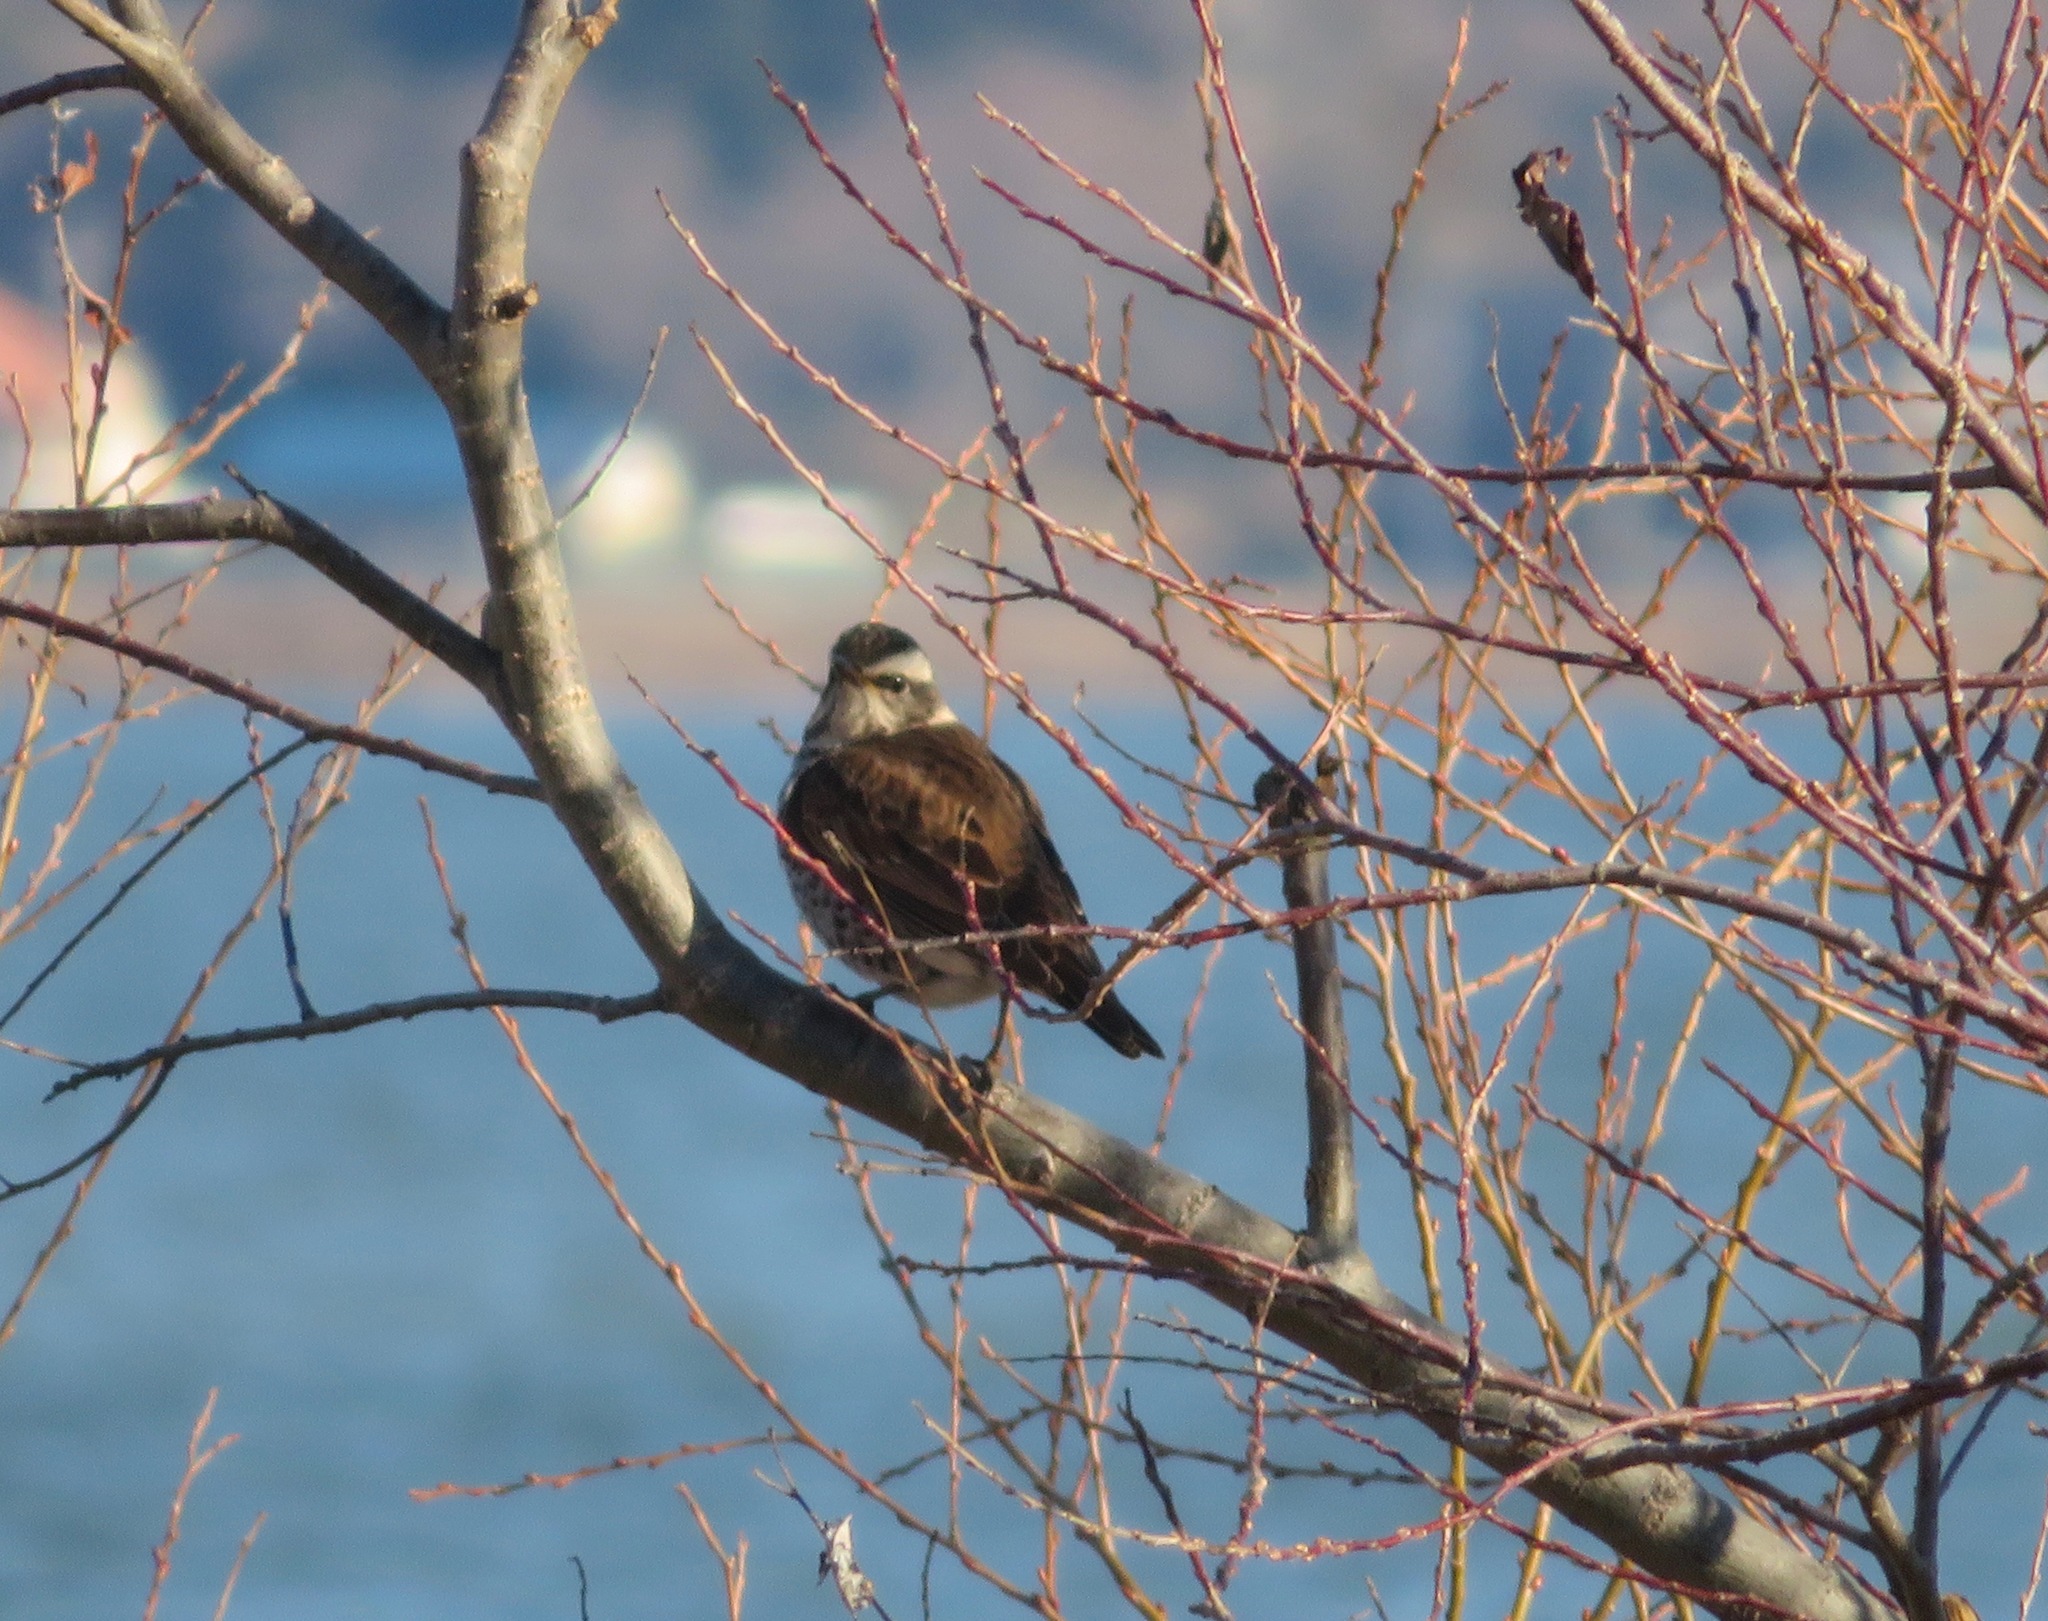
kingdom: Animalia
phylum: Chordata
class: Aves
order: Passeriformes
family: Turdidae
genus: Turdus
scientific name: Turdus eunomus
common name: Dusky thrush
